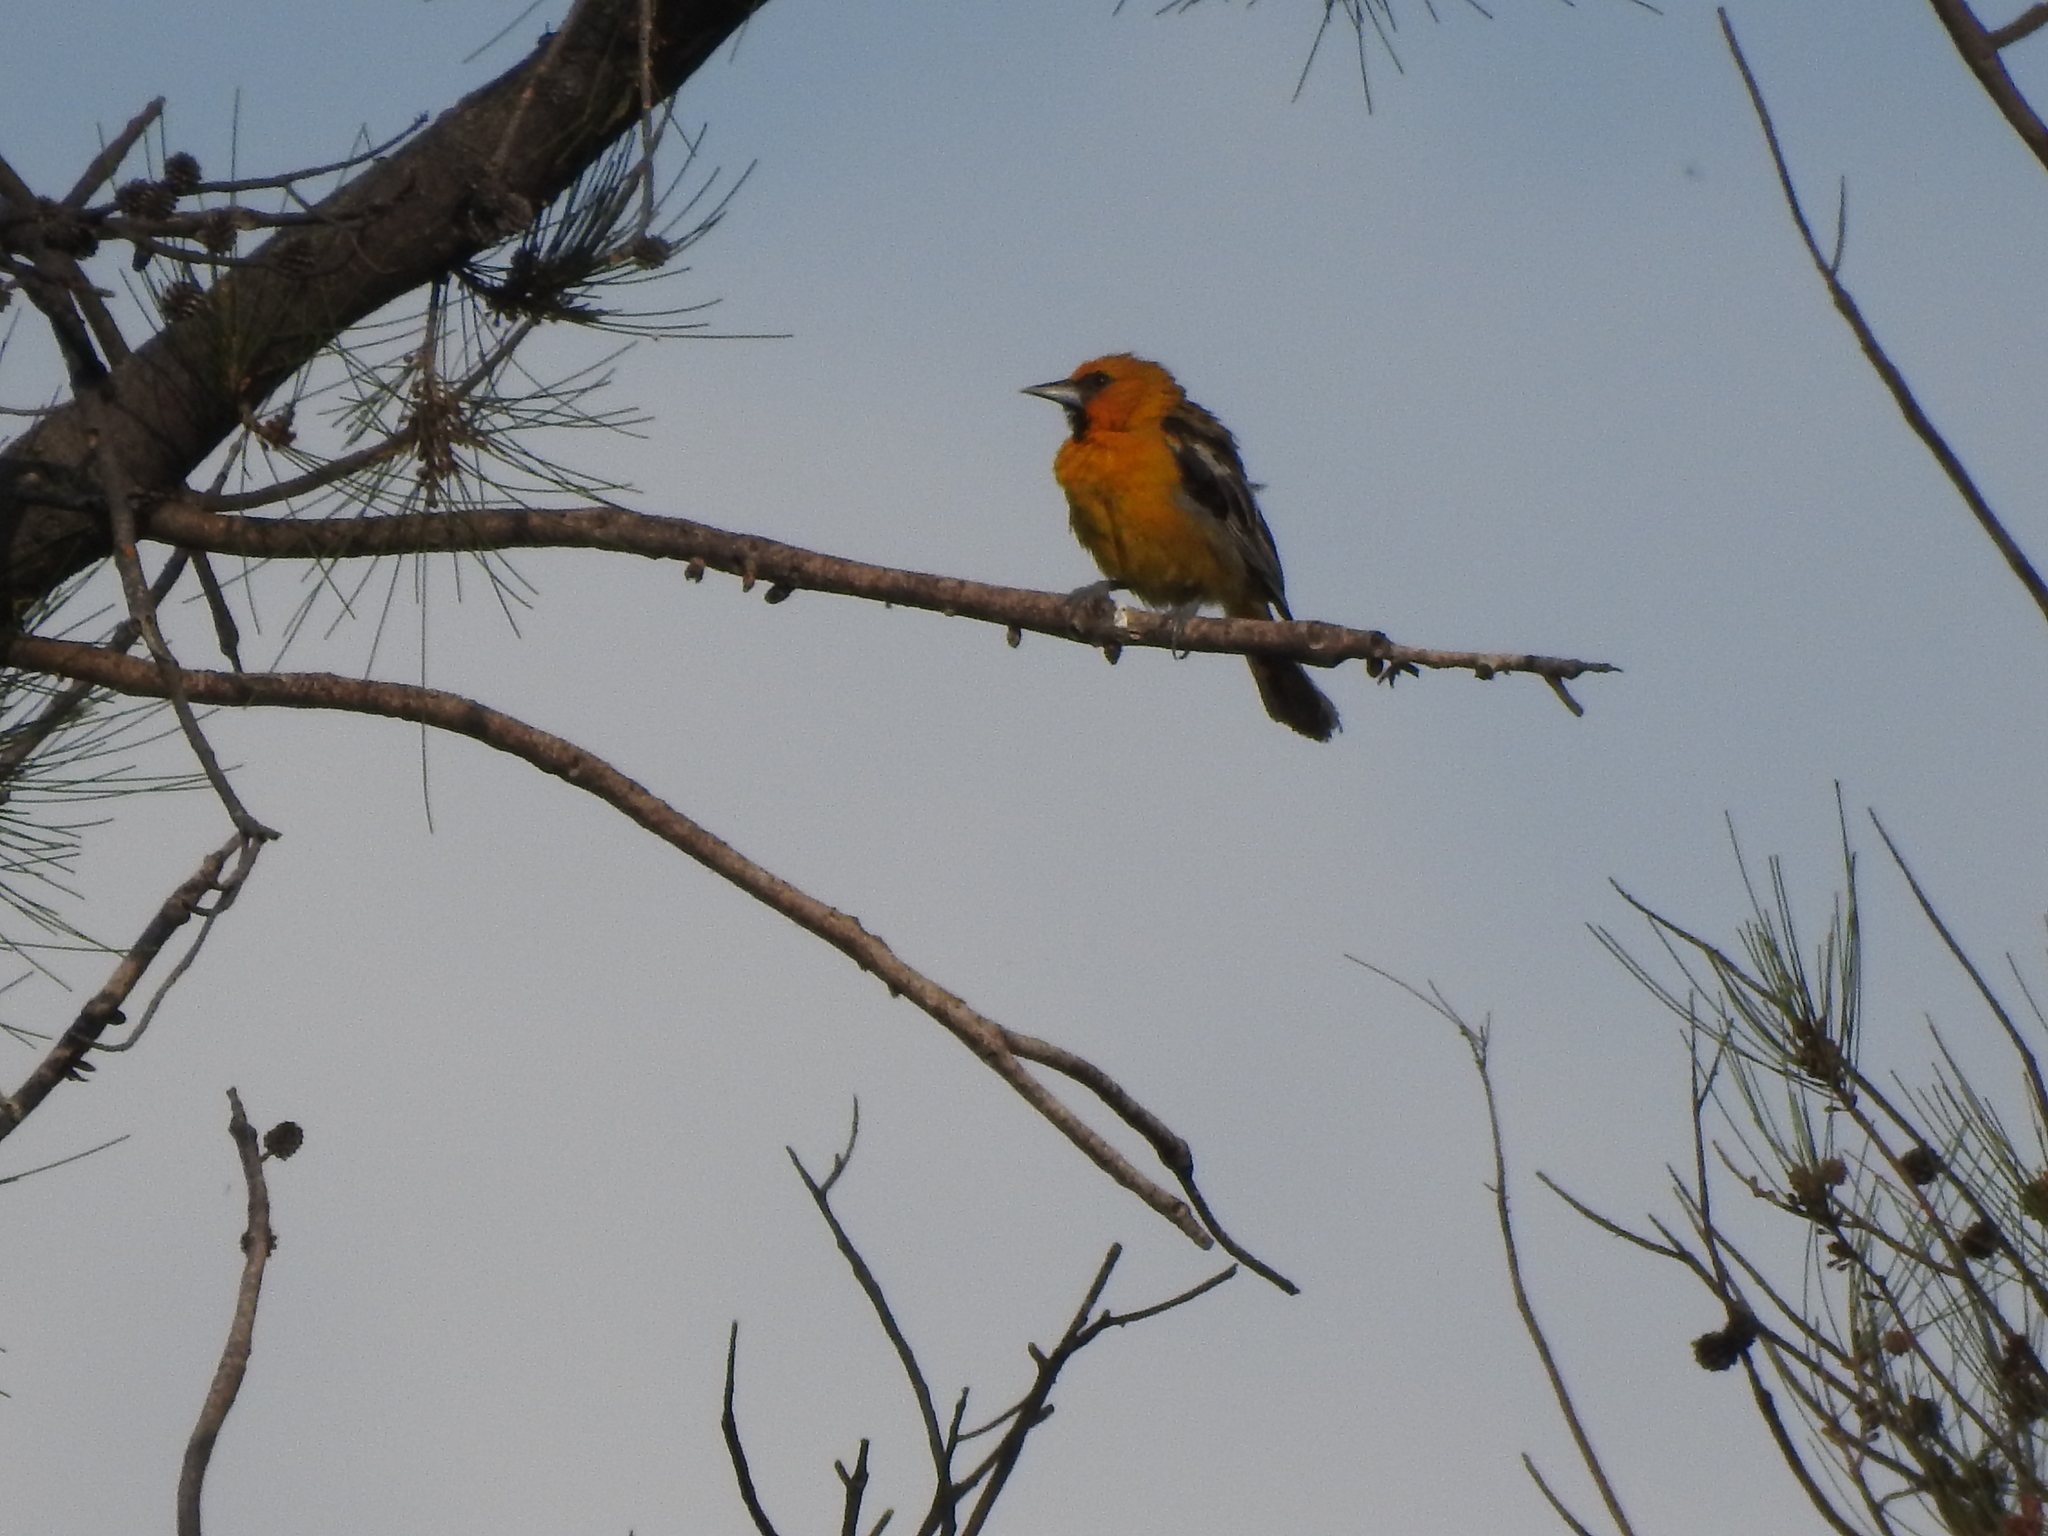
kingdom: Animalia
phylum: Chordata
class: Aves
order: Passeriformes
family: Icteridae
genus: Icterus
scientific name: Icterus pustulatus
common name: Streak-backed oriole
